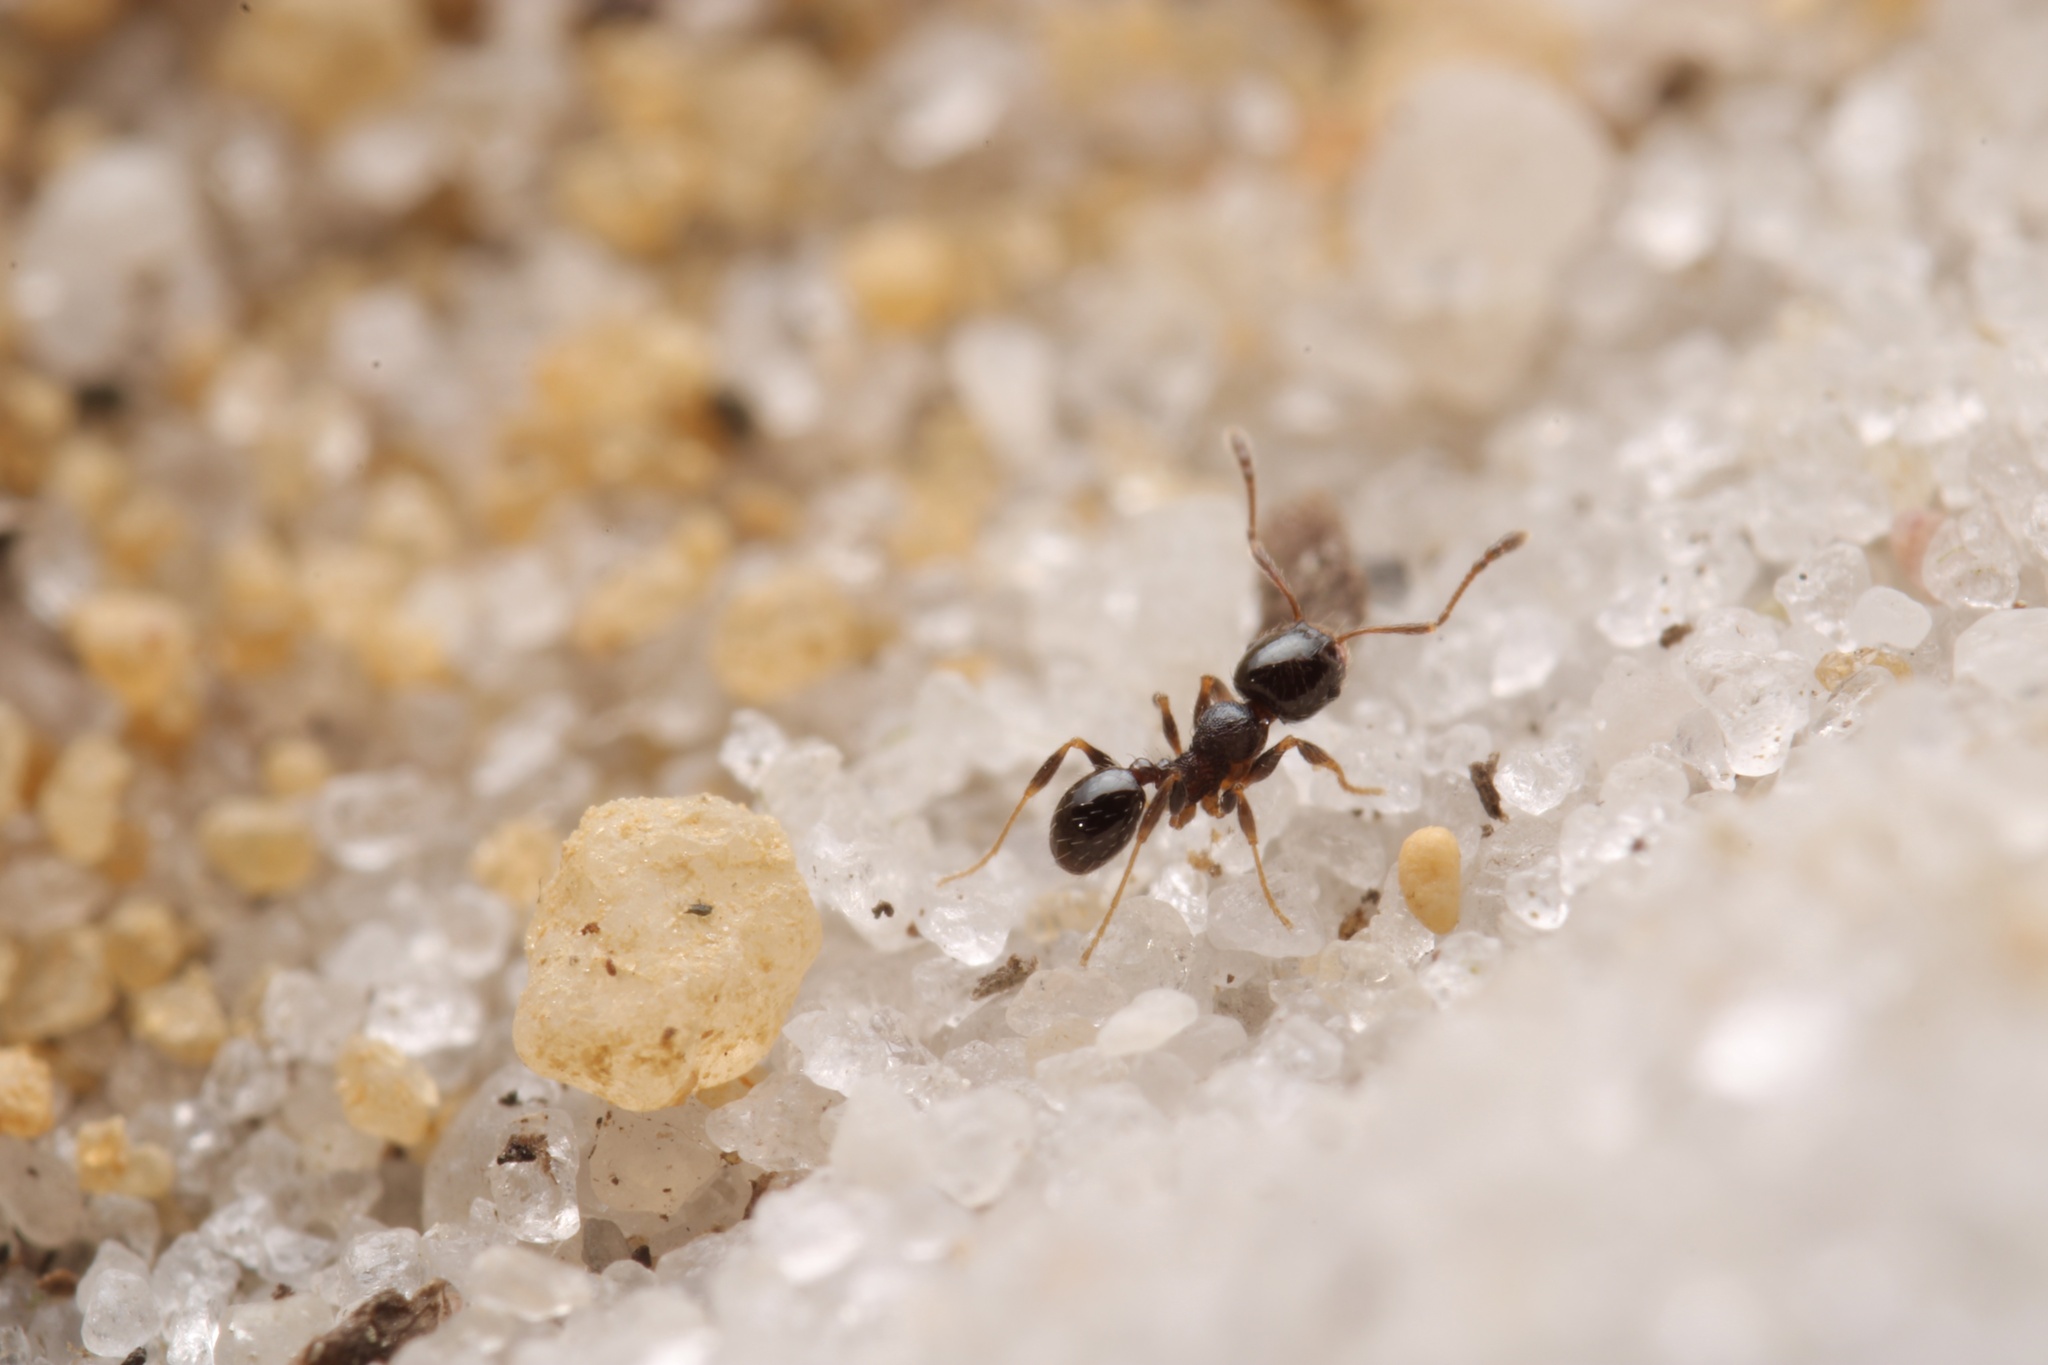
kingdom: Animalia
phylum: Arthropoda
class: Insecta
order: Hymenoptera
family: Formicidae
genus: Pheidole
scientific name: Pheidole davisi
